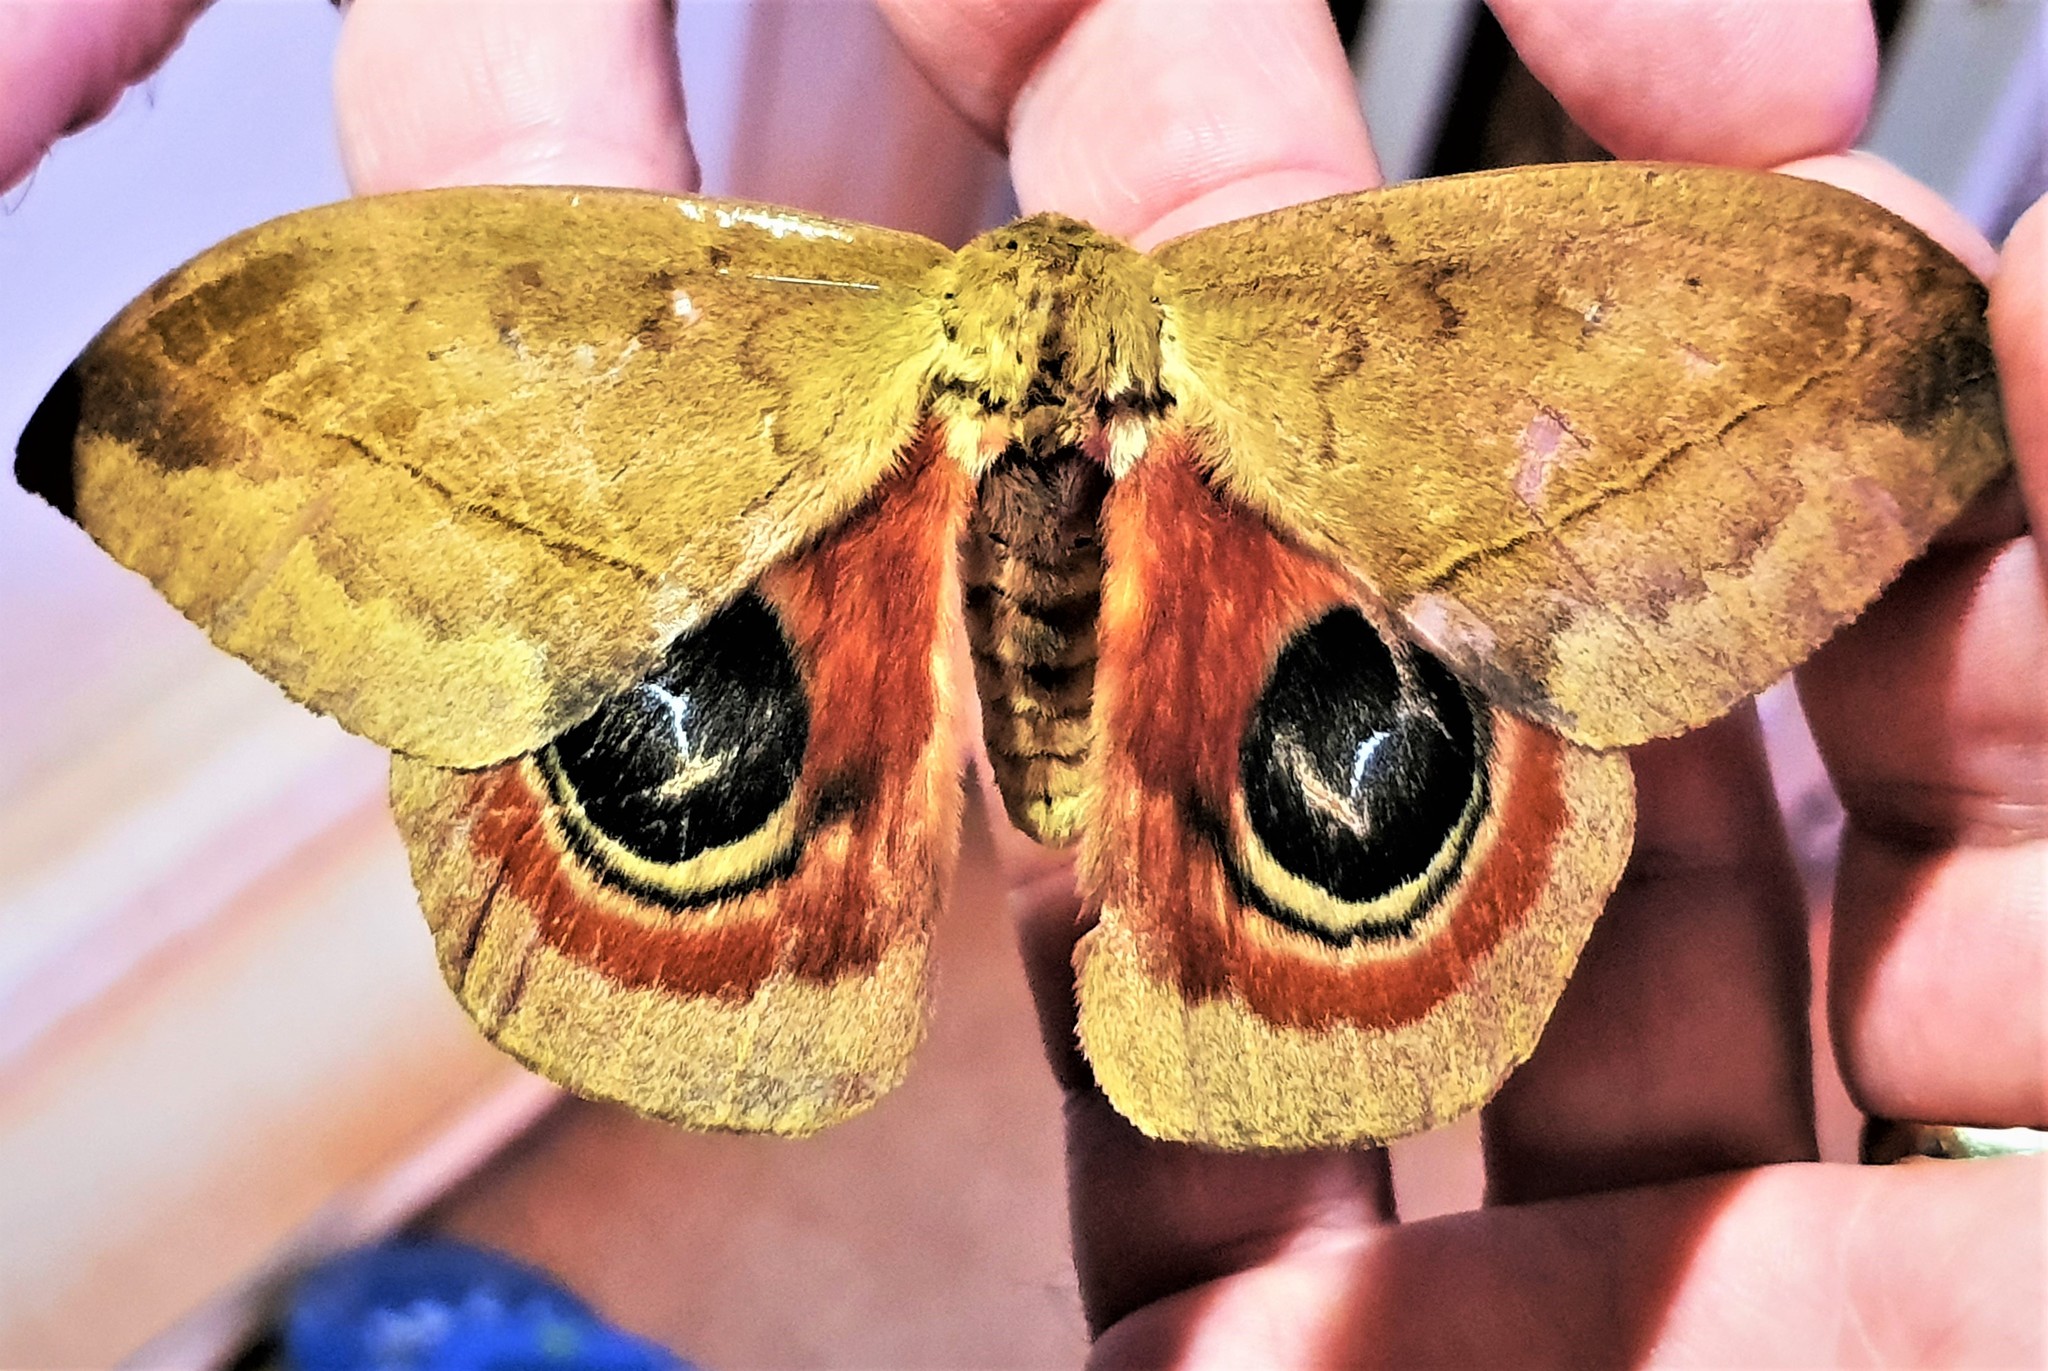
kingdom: Animalia
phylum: Arthropoda
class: Insecta
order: Lepidoptera
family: Saturniidae
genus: Automeris
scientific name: Automeris janus
